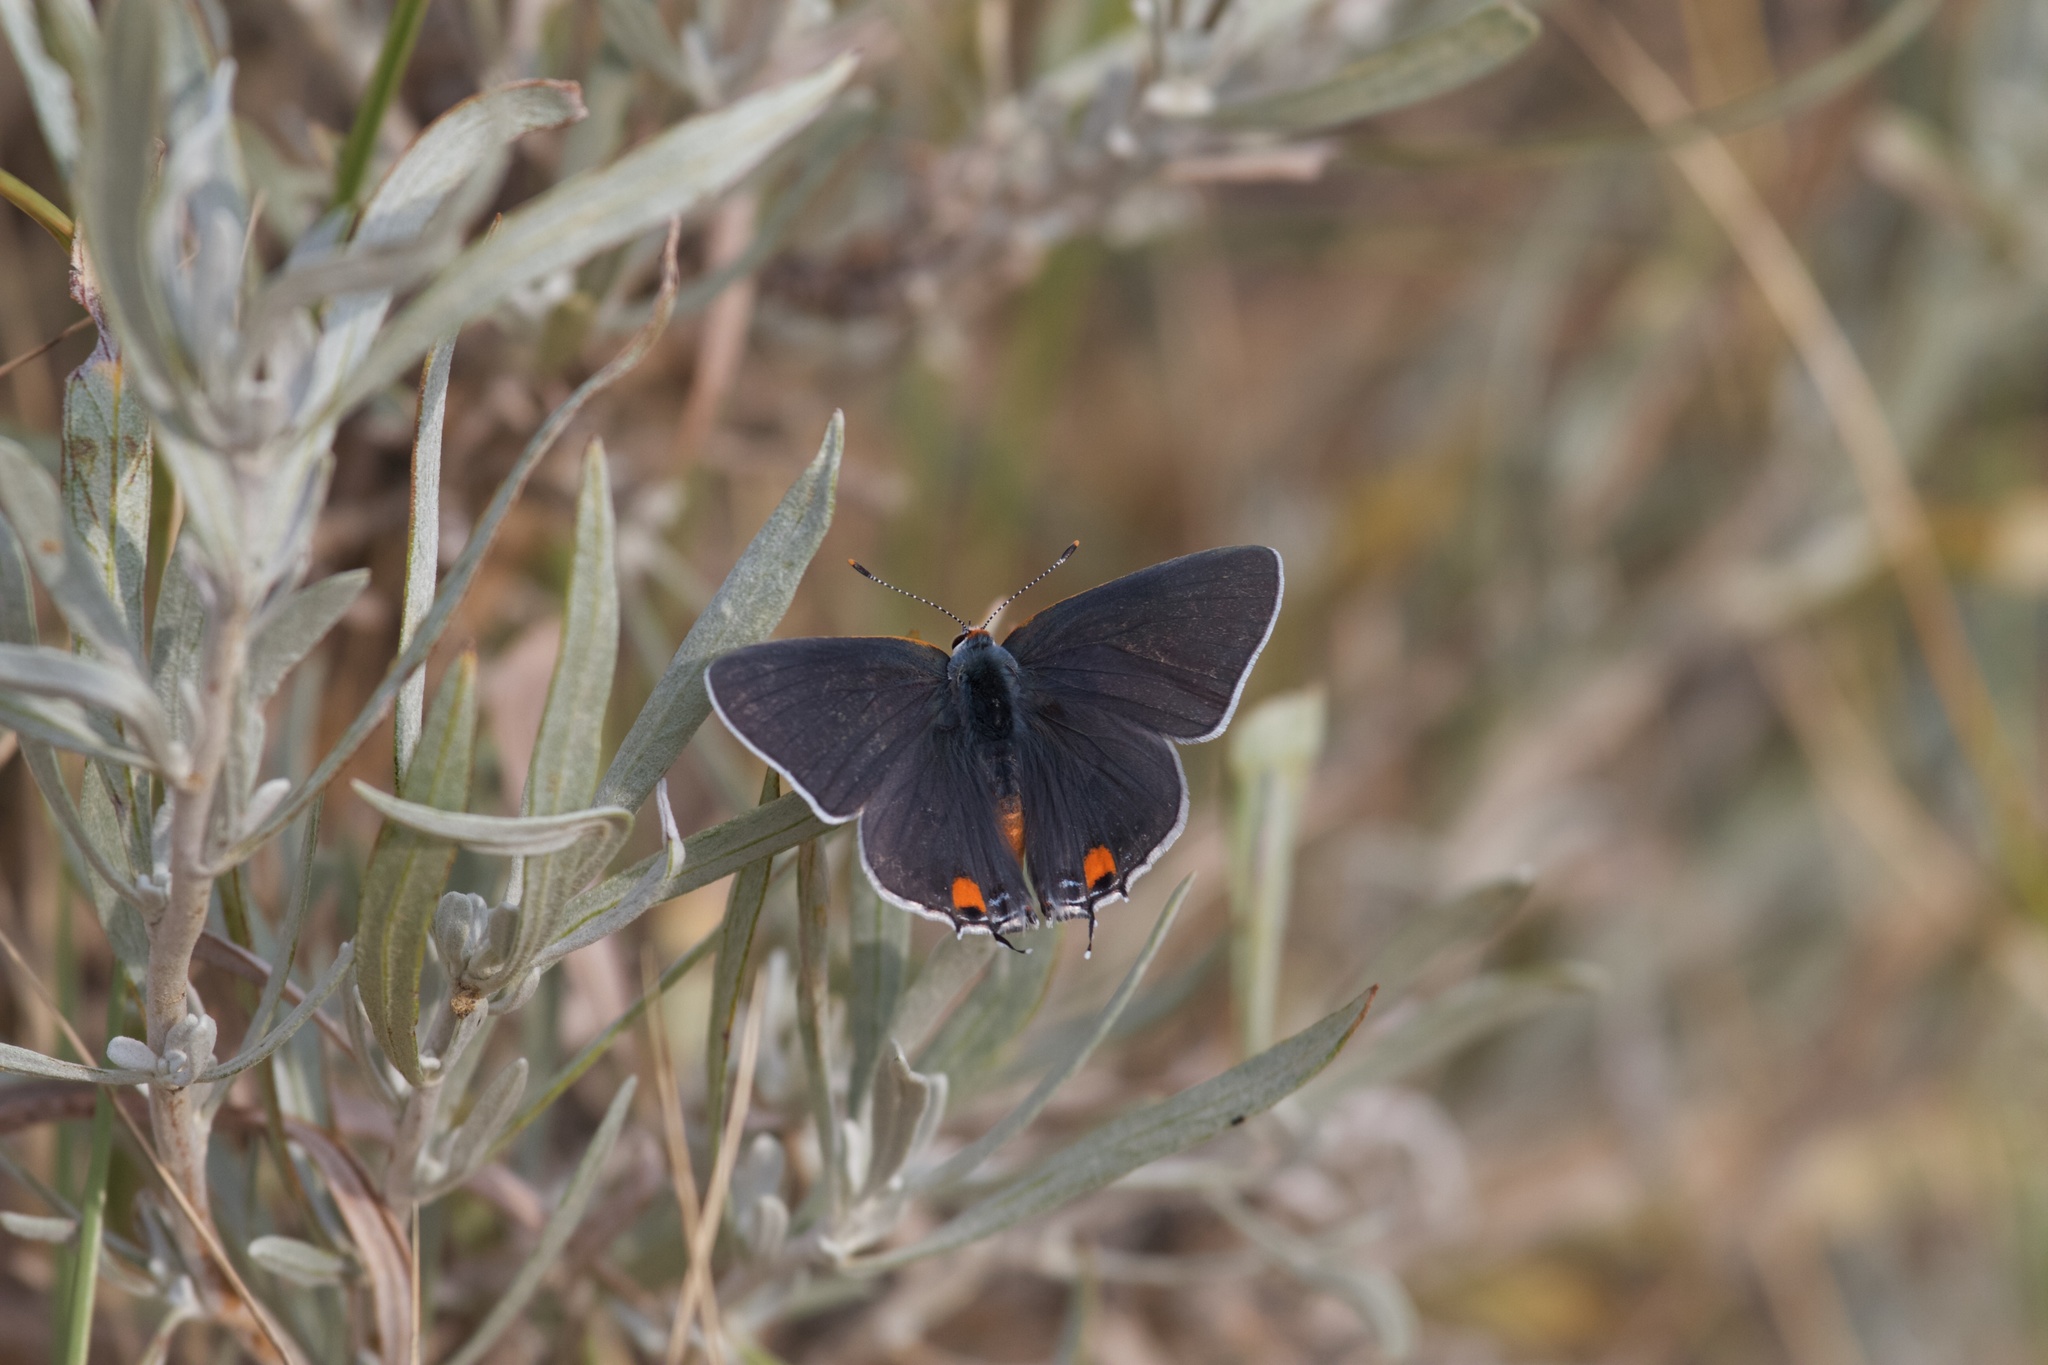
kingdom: Animalia
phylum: Arthropoda
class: Insecta
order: Lepidoptera
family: Lycaenidae
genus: Strymon
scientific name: Strymon melinus
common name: Gray hairstreak
